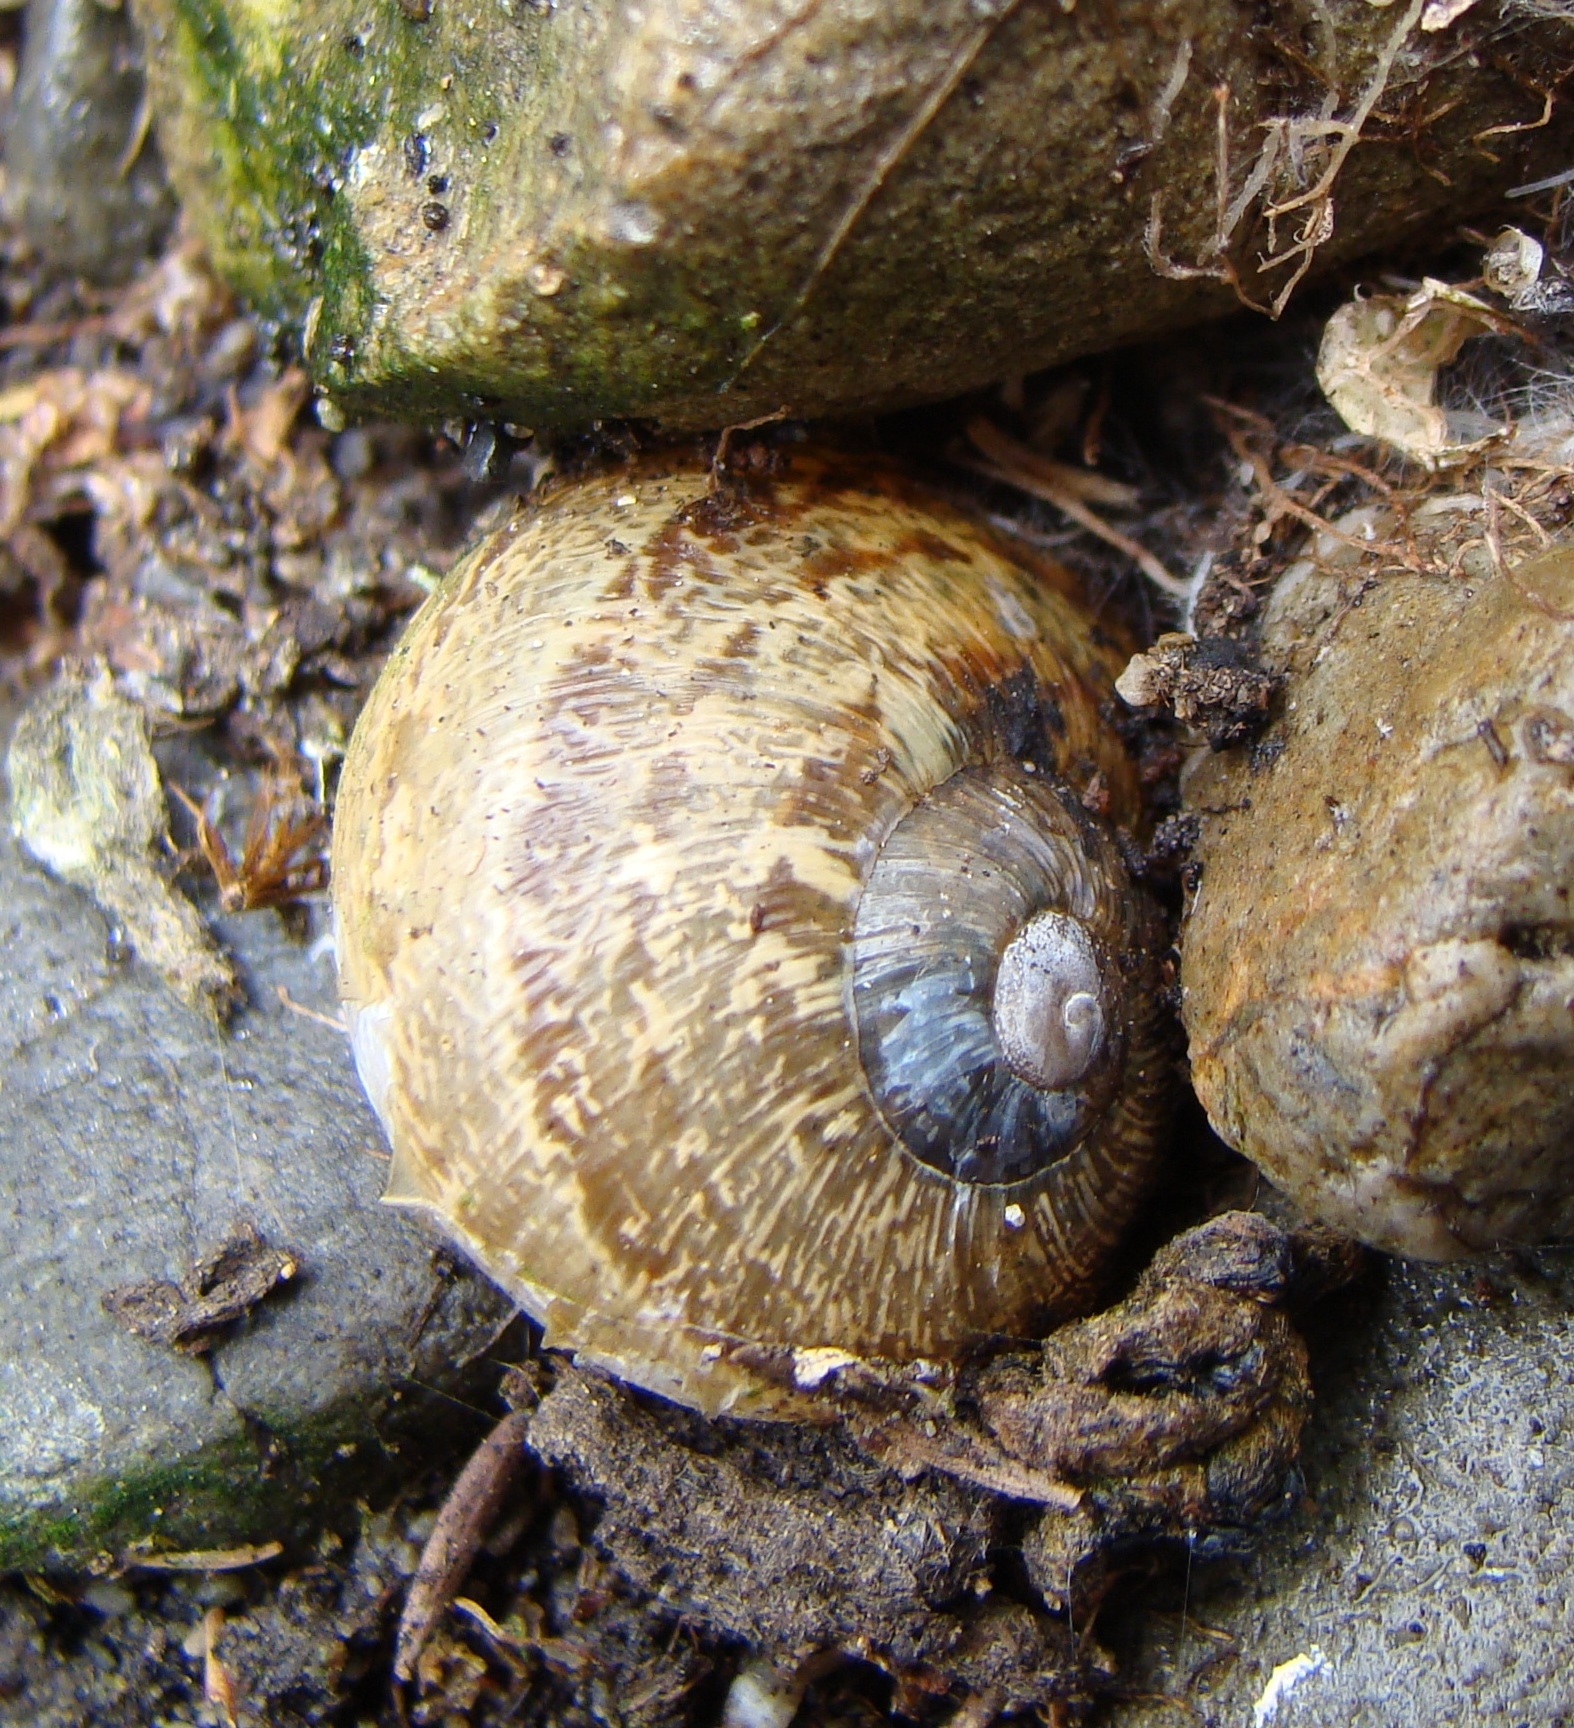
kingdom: Animalia
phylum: Mollusca
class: Gastropoda
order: Stylommatophora
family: Helicidae
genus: Cornu
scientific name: Cornu aspersum
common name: Brown garden snail
